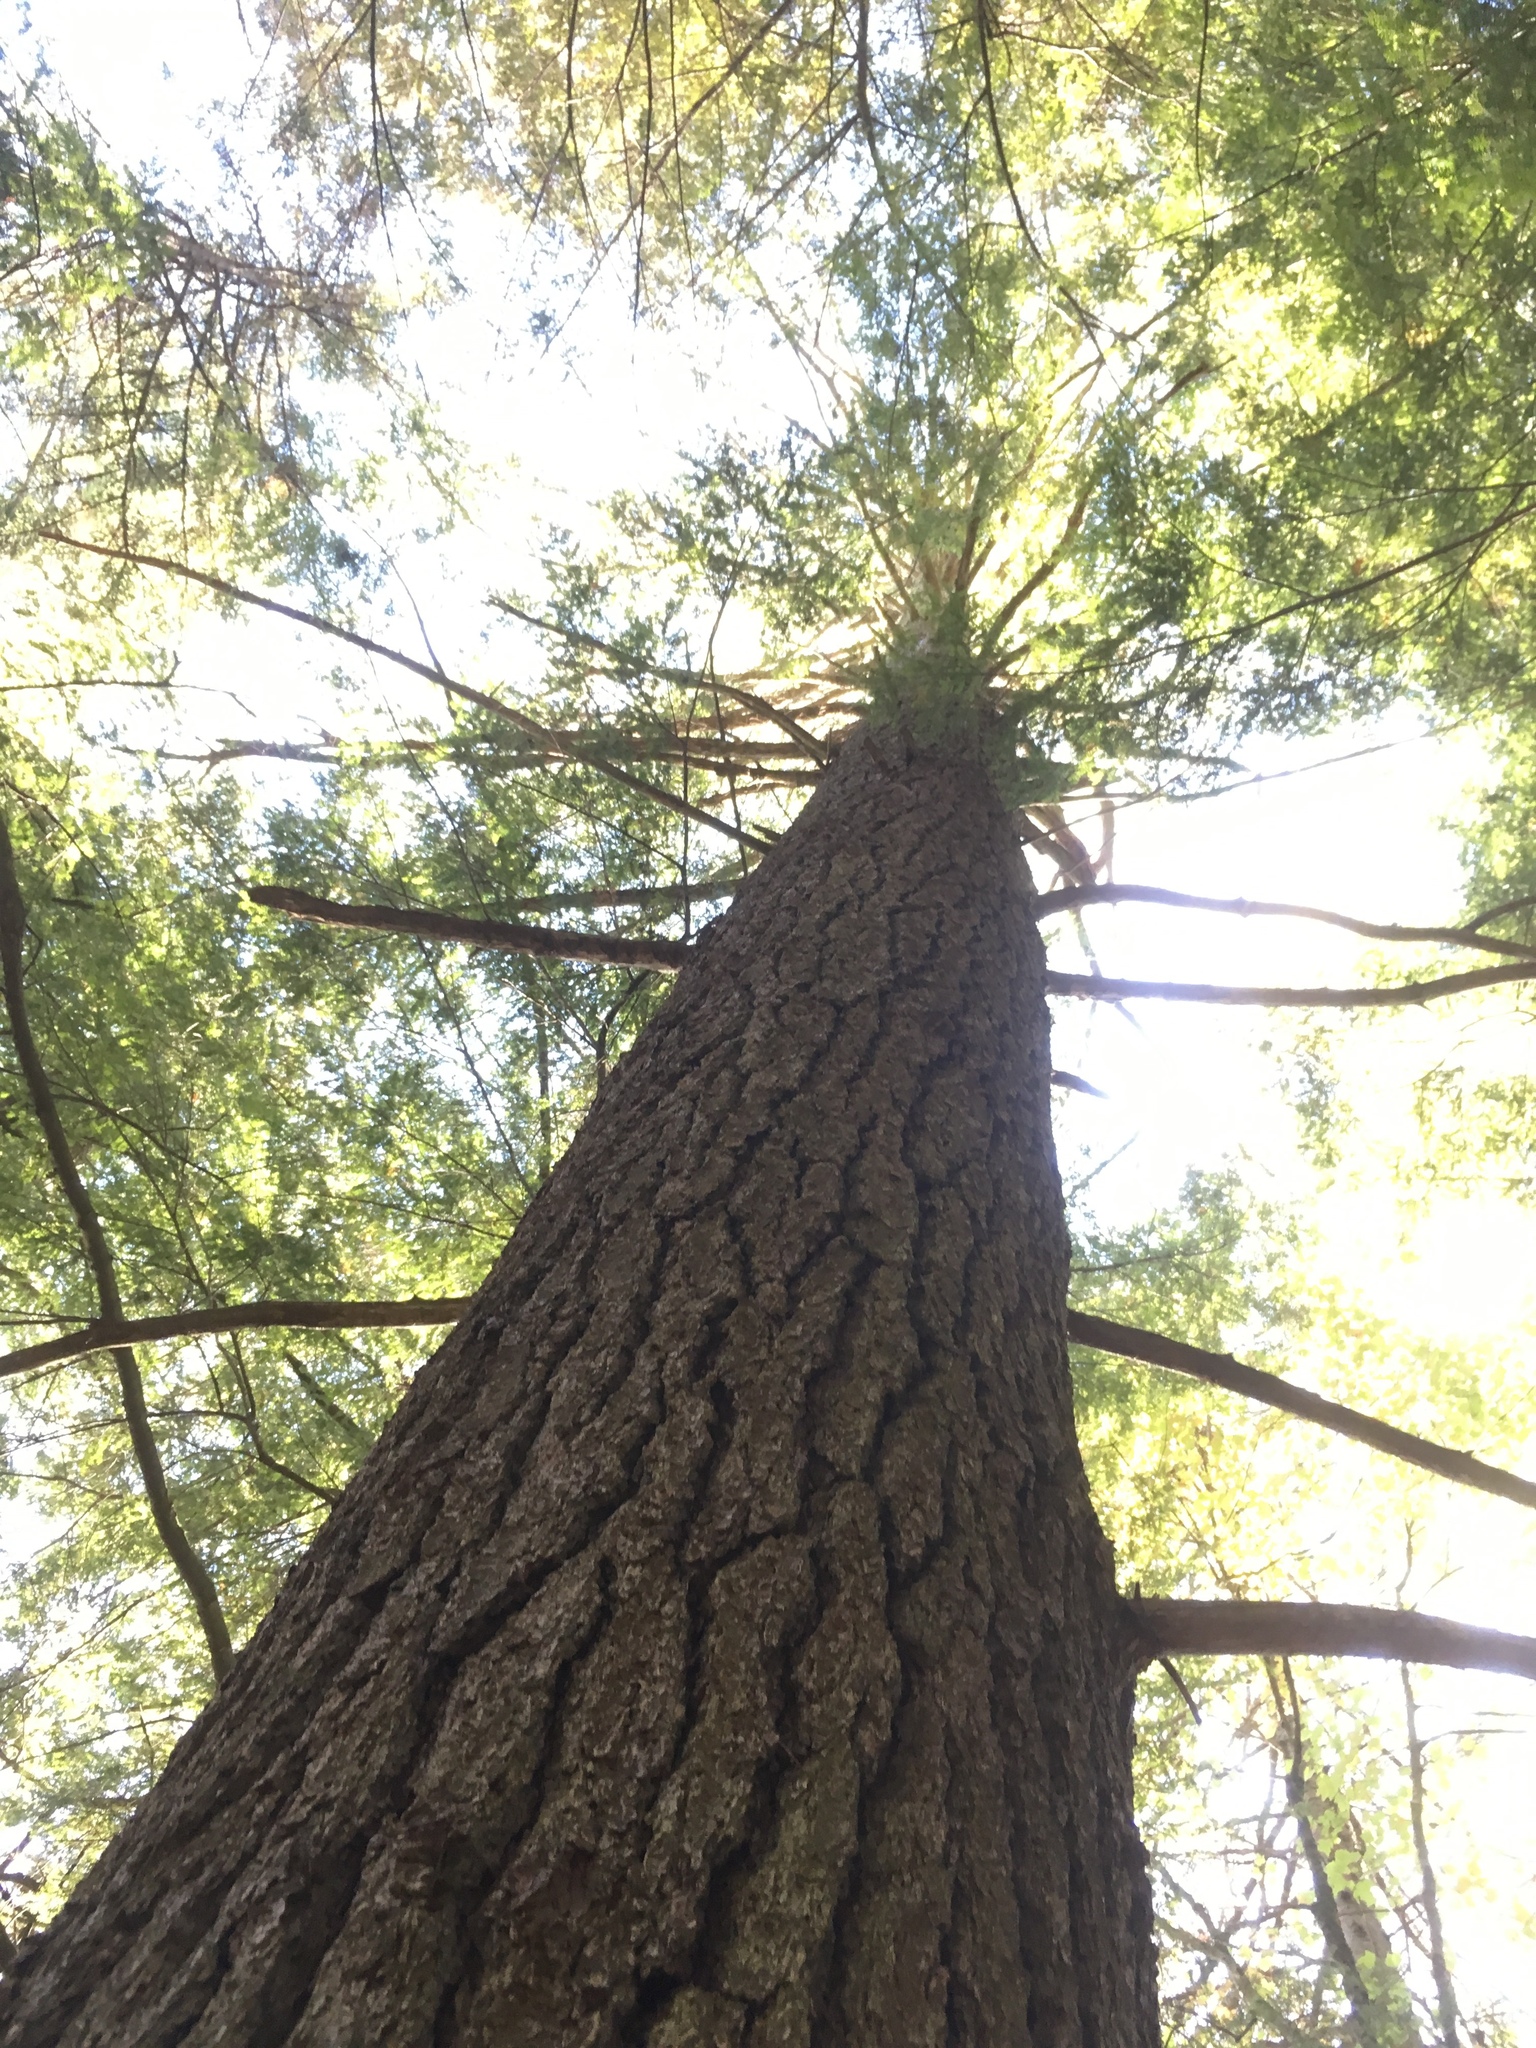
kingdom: Plantae
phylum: Tracheophyta
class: Pinopsida
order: Pinales
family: Pinaceae
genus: Pinus
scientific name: Pinus strobus
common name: Weymouth pine
